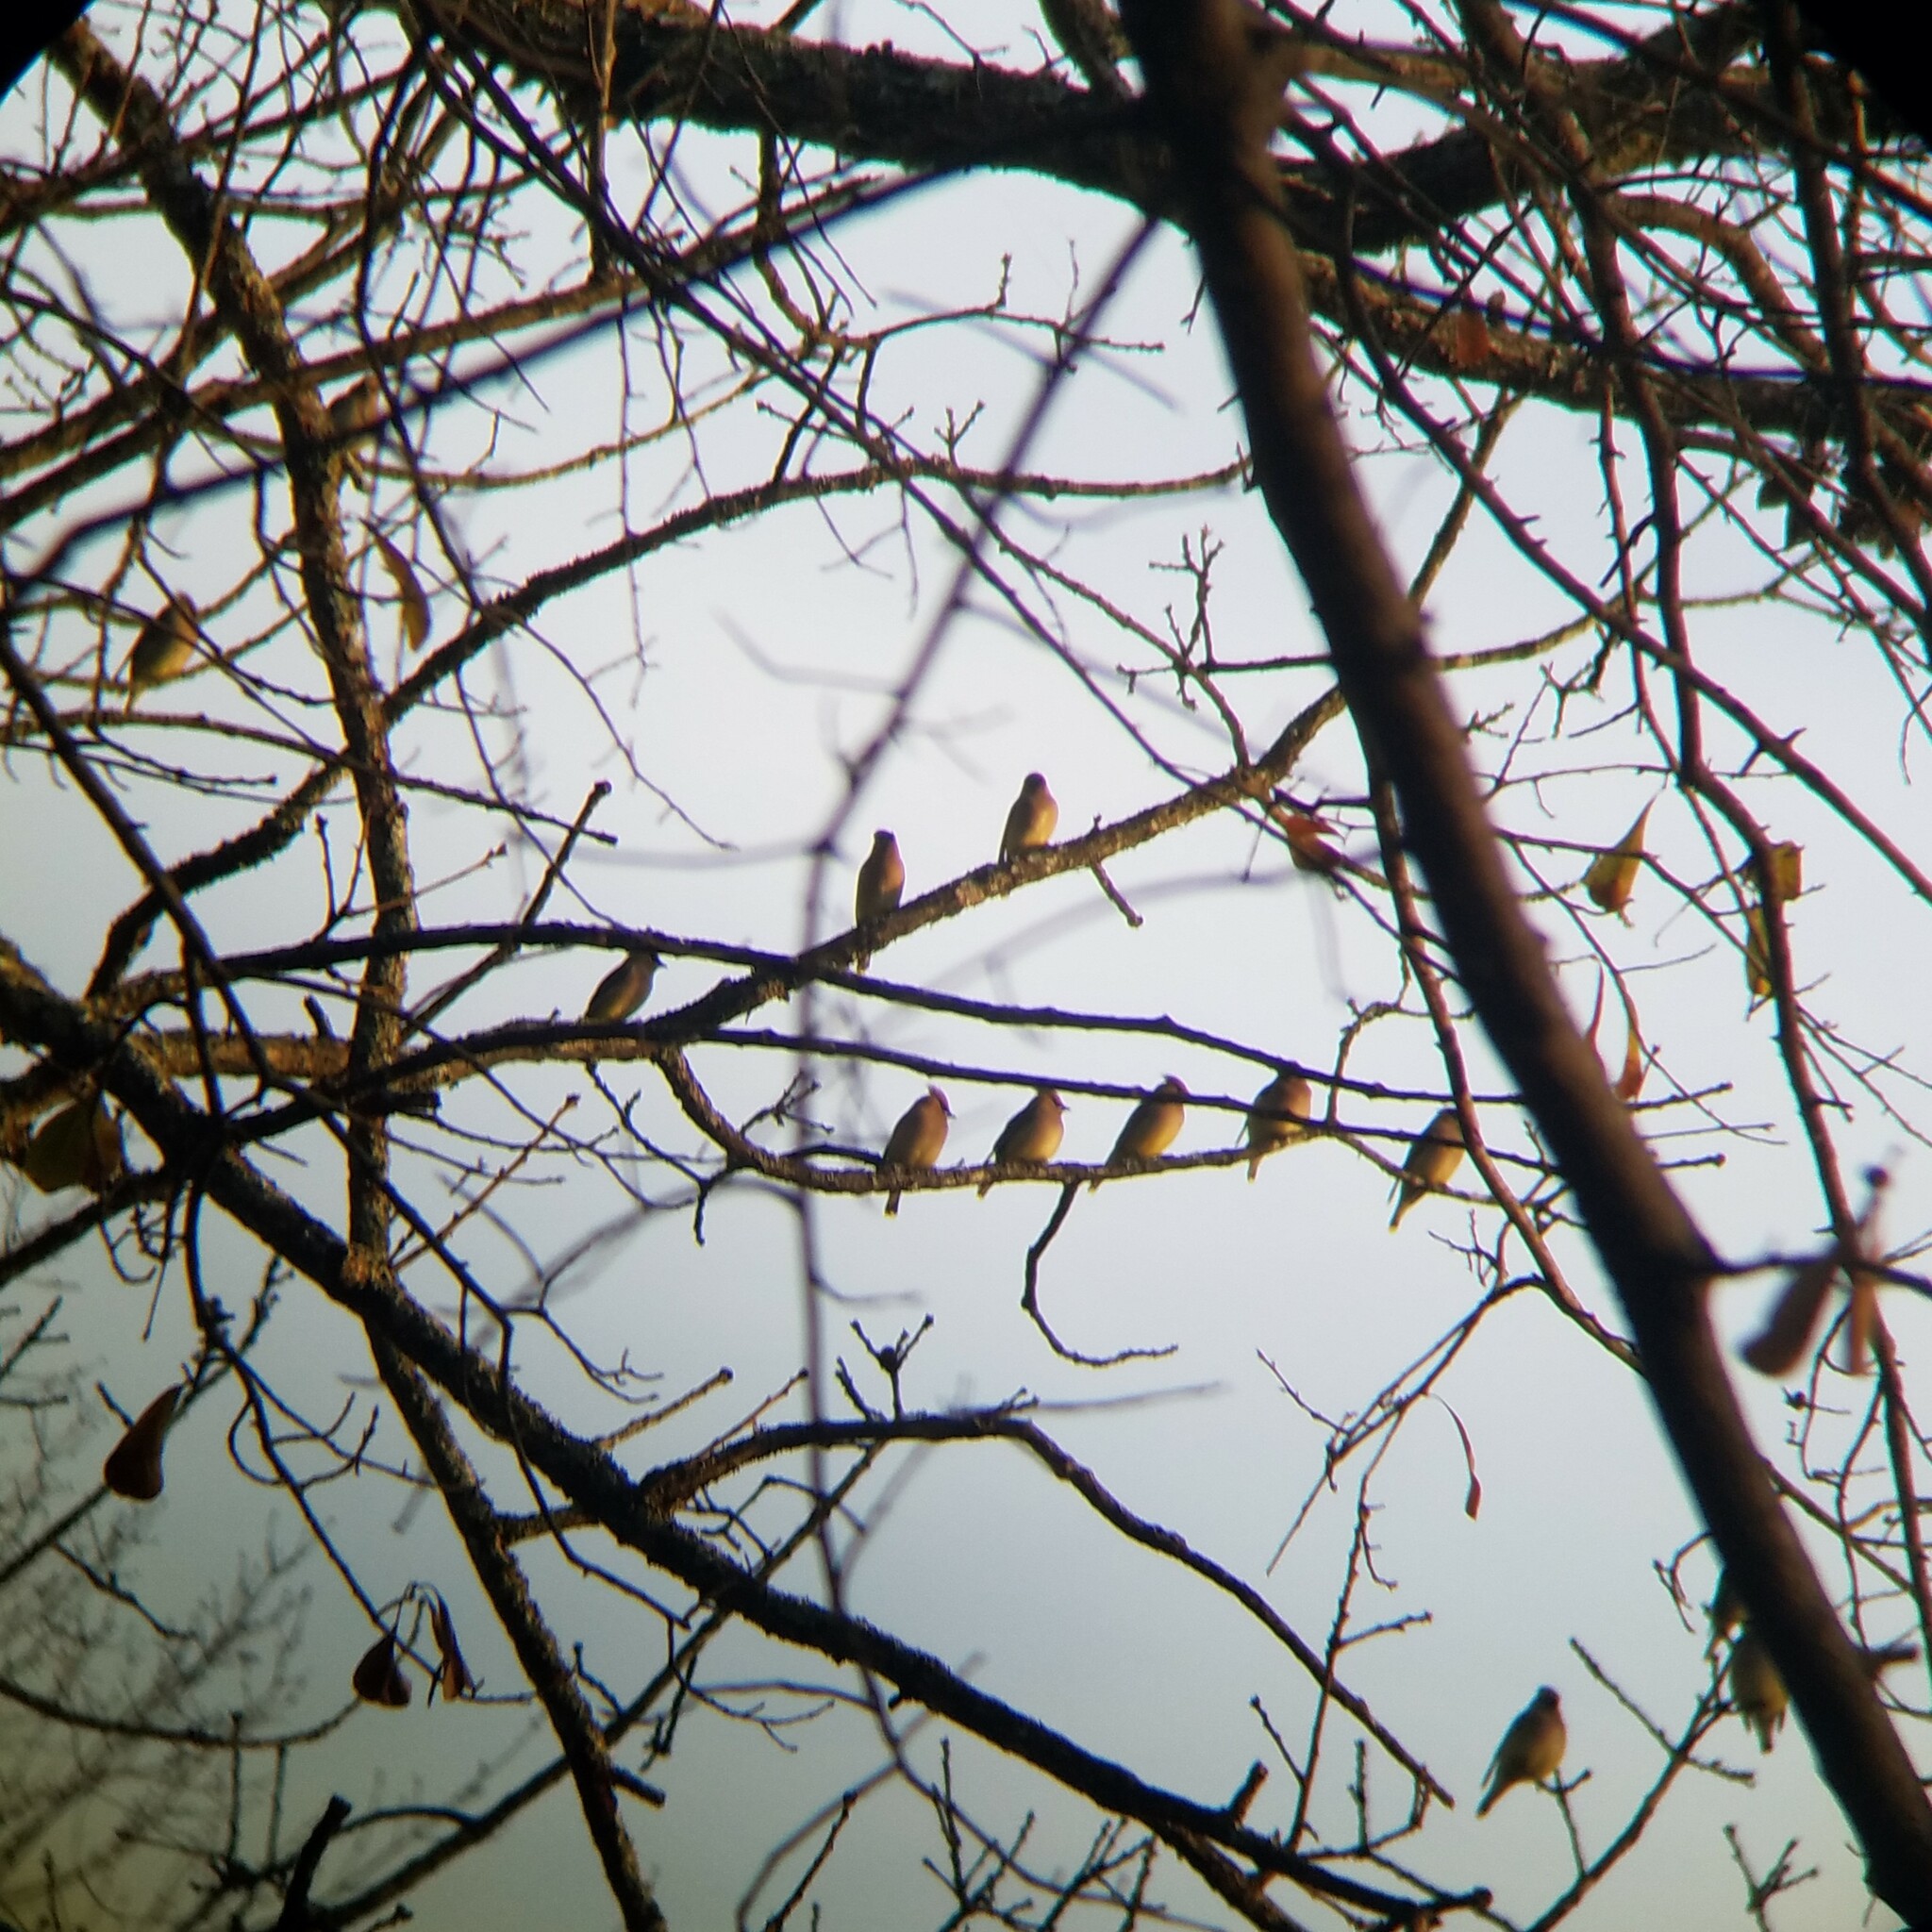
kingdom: Animalia
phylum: Chordata
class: Aves
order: Passeriformes
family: Bombycillidae
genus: Bombycilla
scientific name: Bombycilla cedrorum
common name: Cedar waxwing
